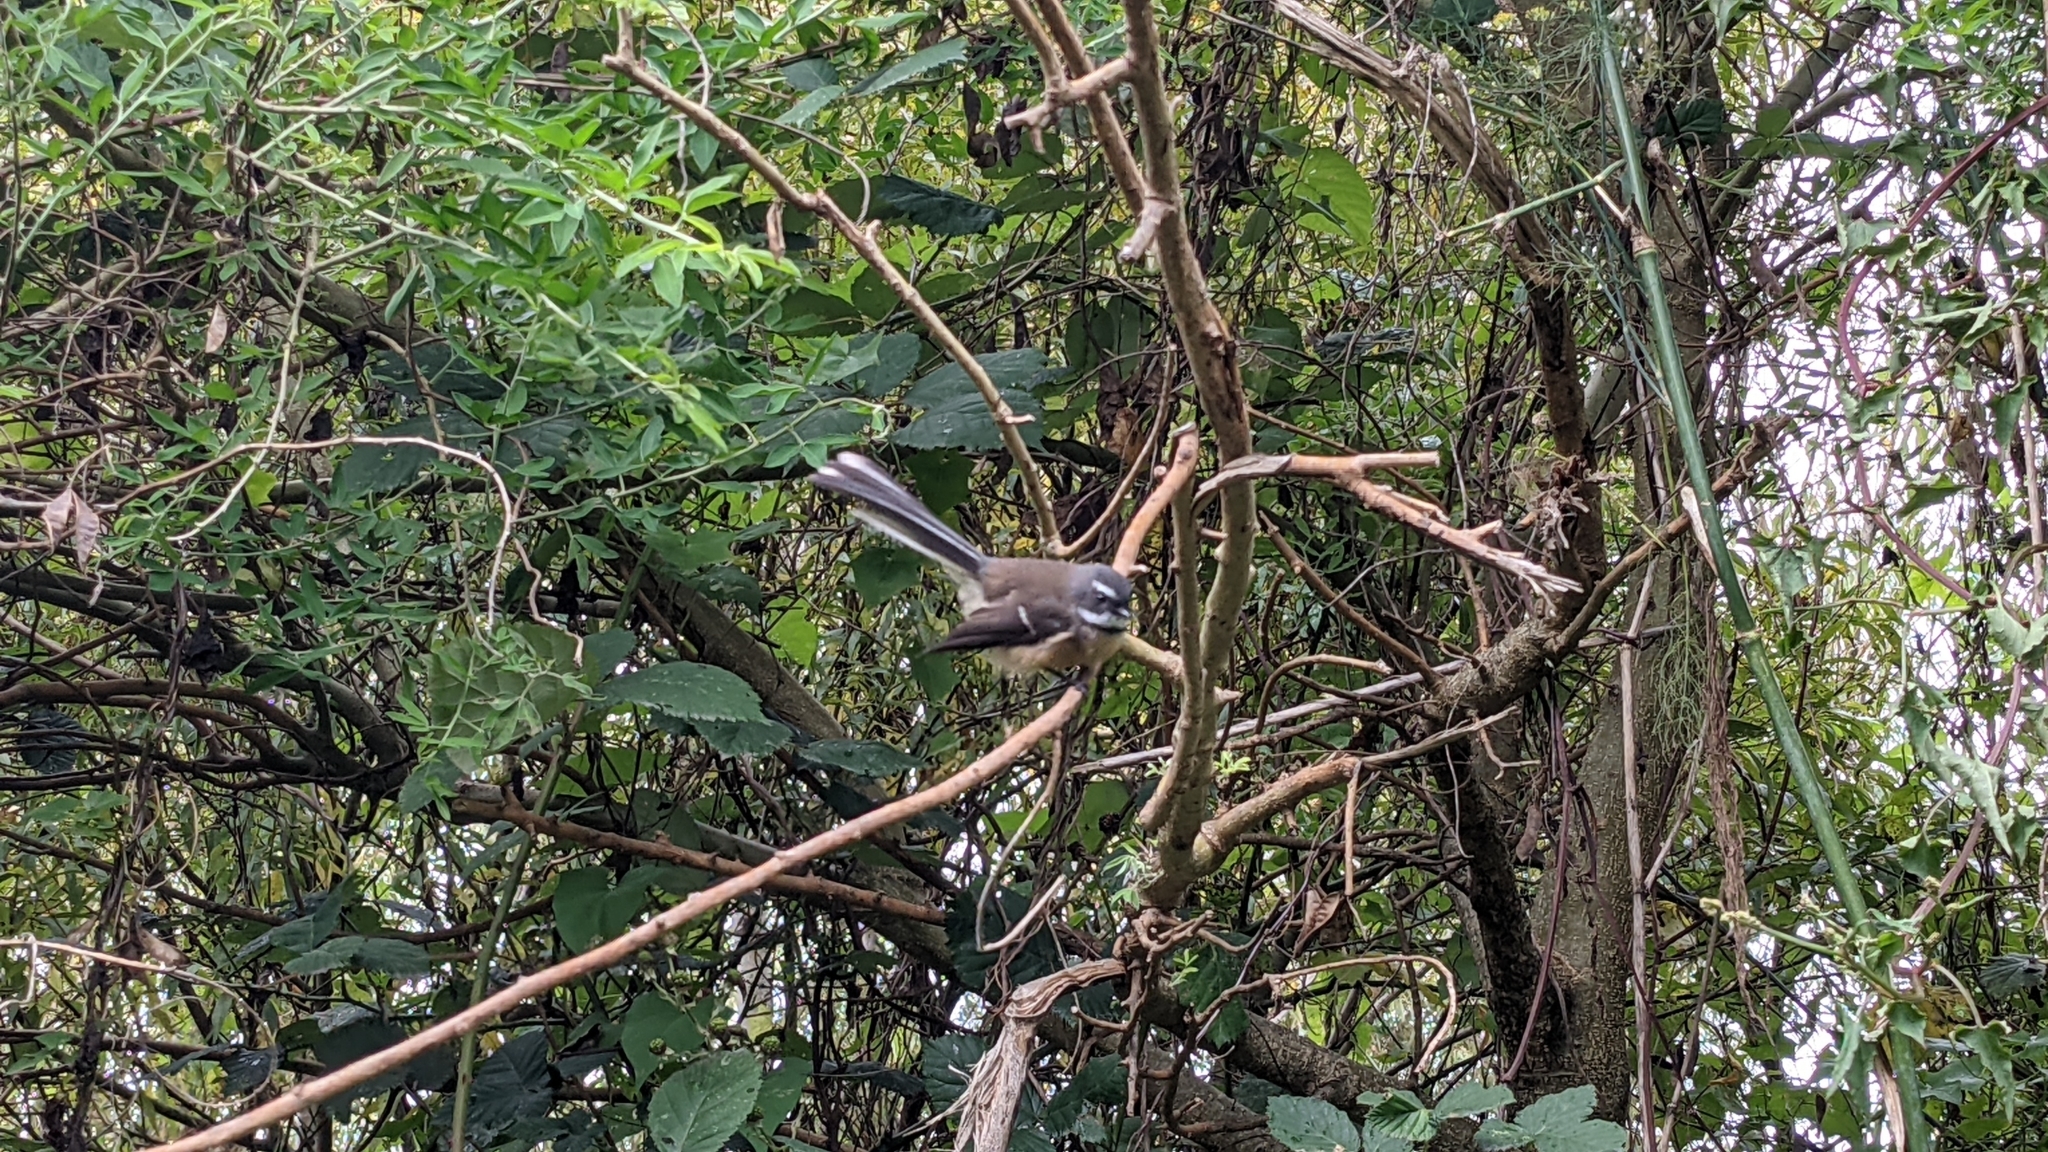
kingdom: Animalia
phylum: Chordata
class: Aves
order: Passeriformes
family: Rhipiduridae
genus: Rhipidura
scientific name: Rhipidura fuliginosa
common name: New zealand fantail
